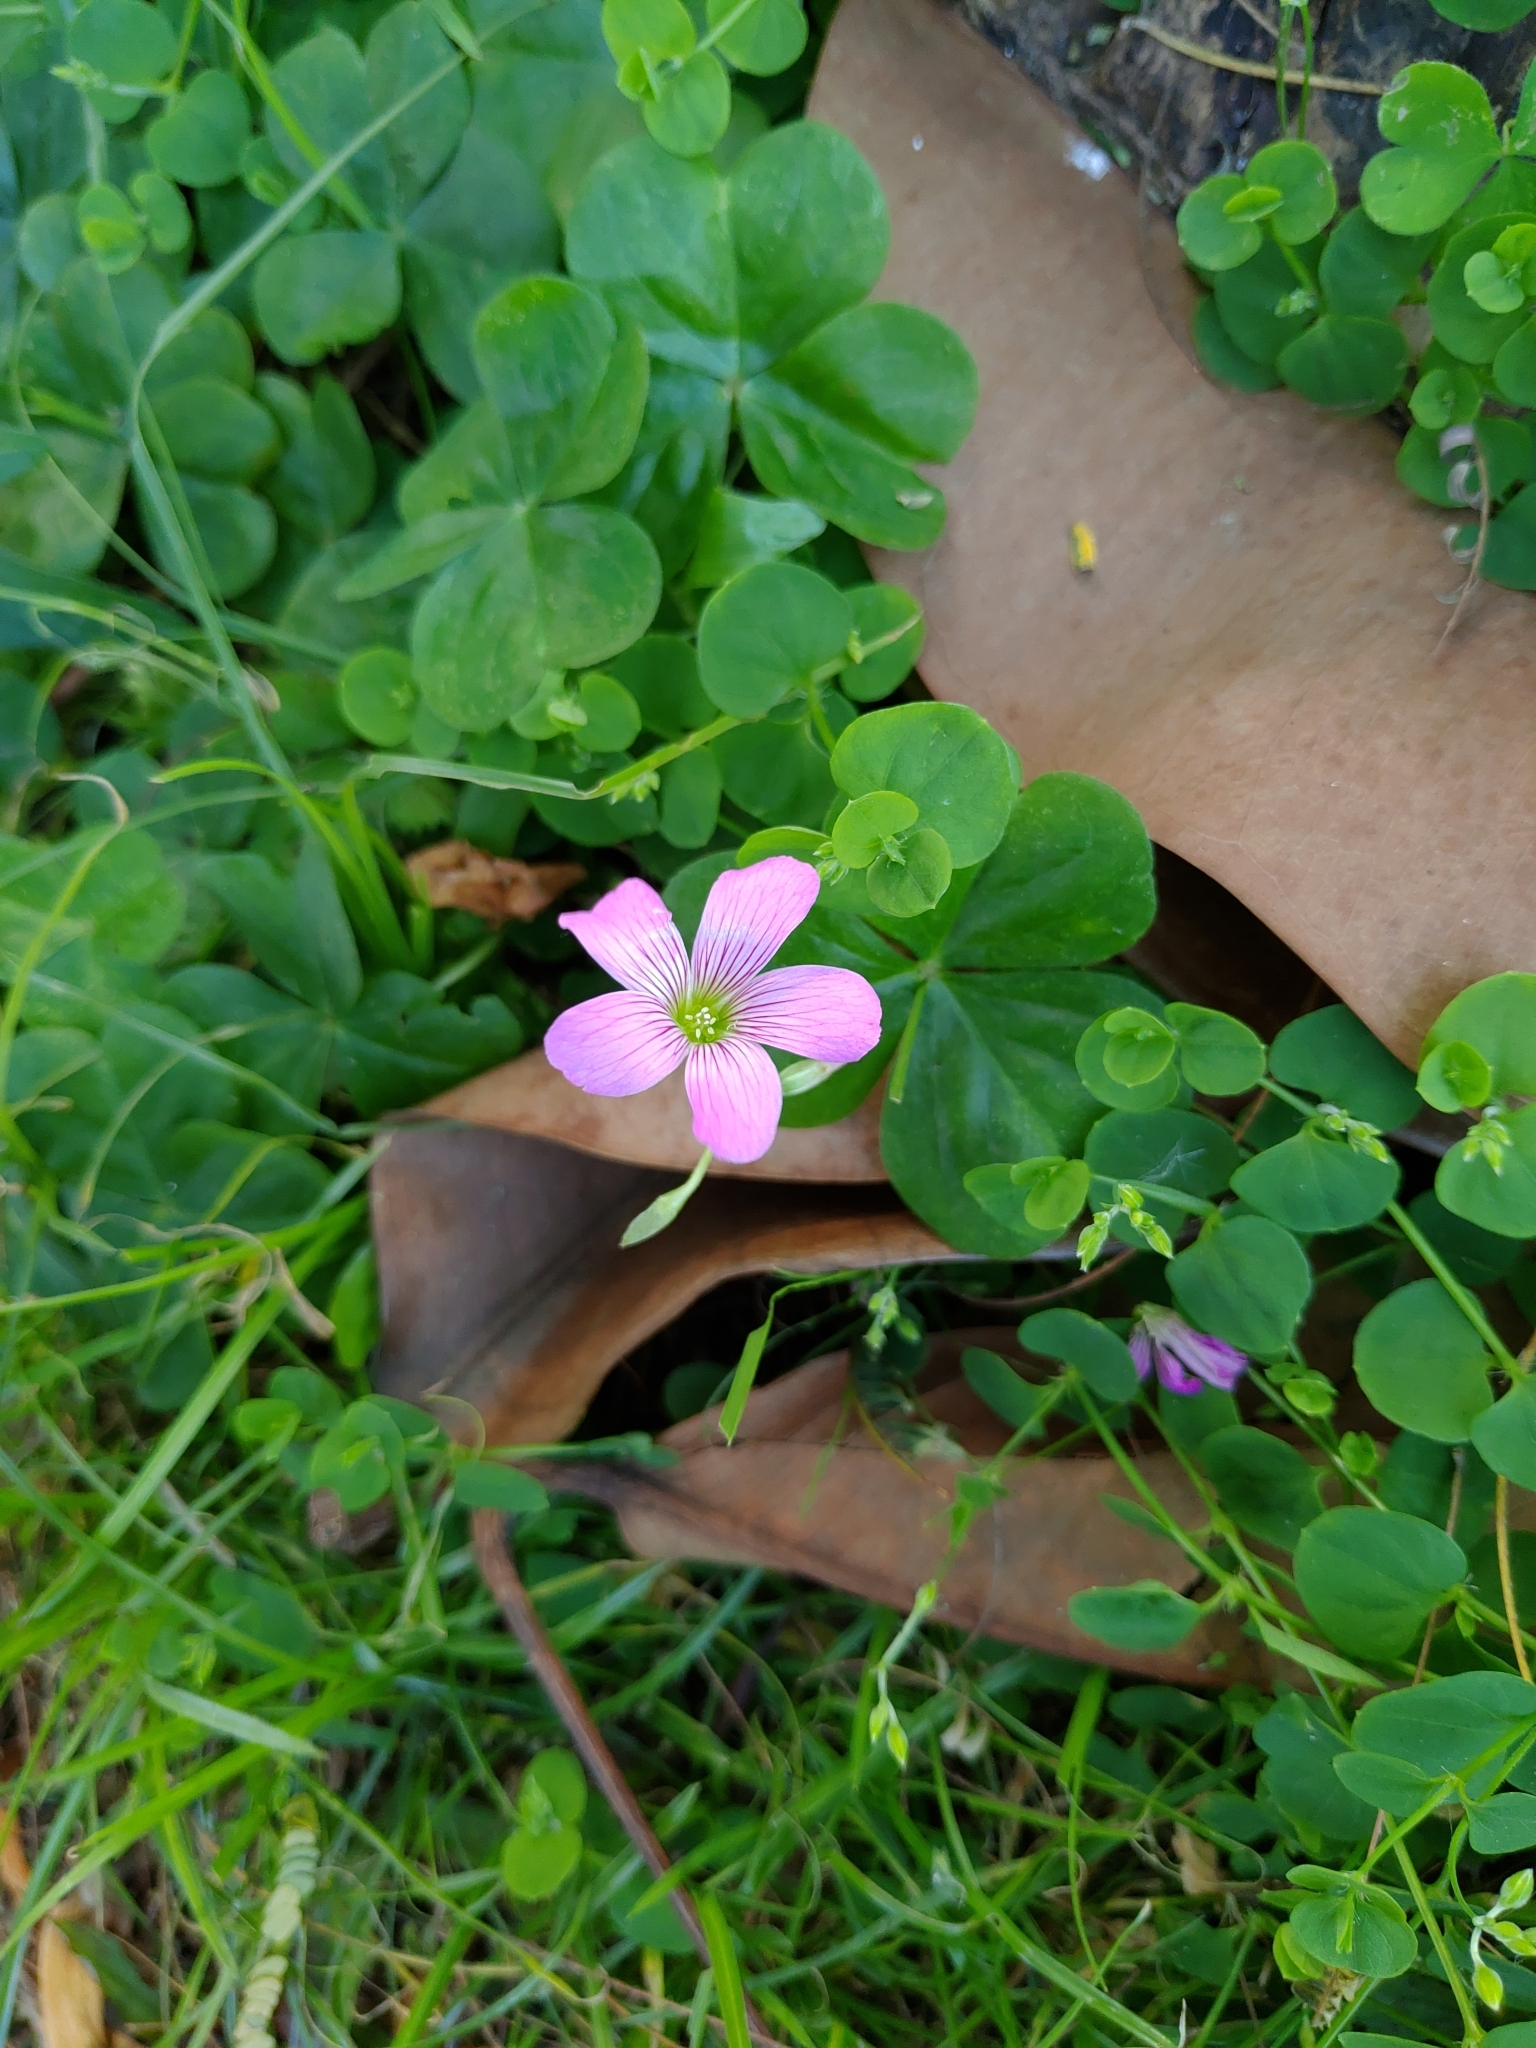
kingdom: Plantae
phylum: Tracheophyta
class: Magnoliopsida
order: Oxalidales
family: Oxalidaceae
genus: Oxalis
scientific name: Oxalis debilis
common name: Large-flowered pink-sorrel
